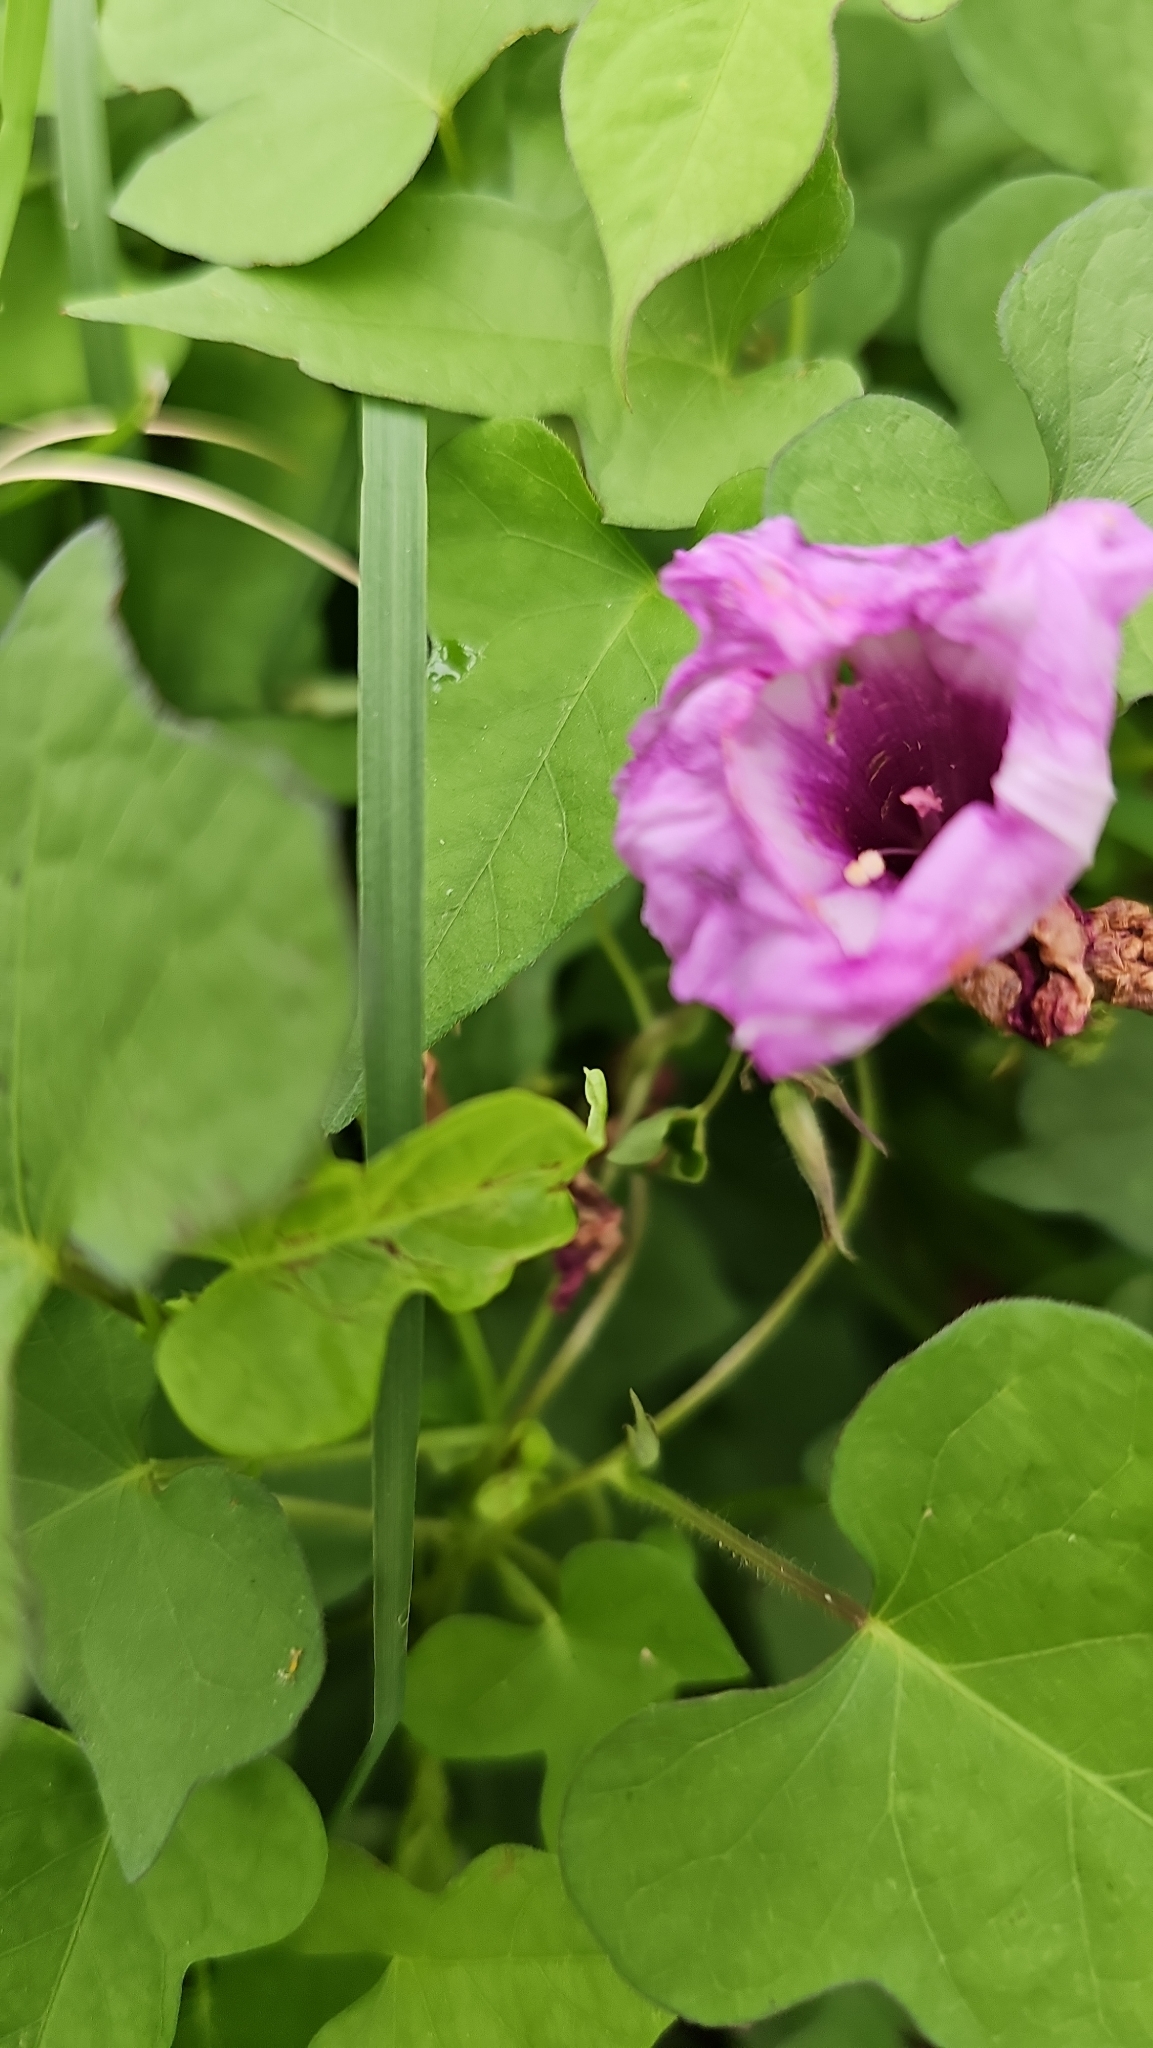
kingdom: Plantae
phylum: Tracheophyta
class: Magnoliopsida
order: Solanales
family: Convolvulaceae
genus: Ipomoea
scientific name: Ipomoea cordatotriloba
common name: Cotton morning glory
